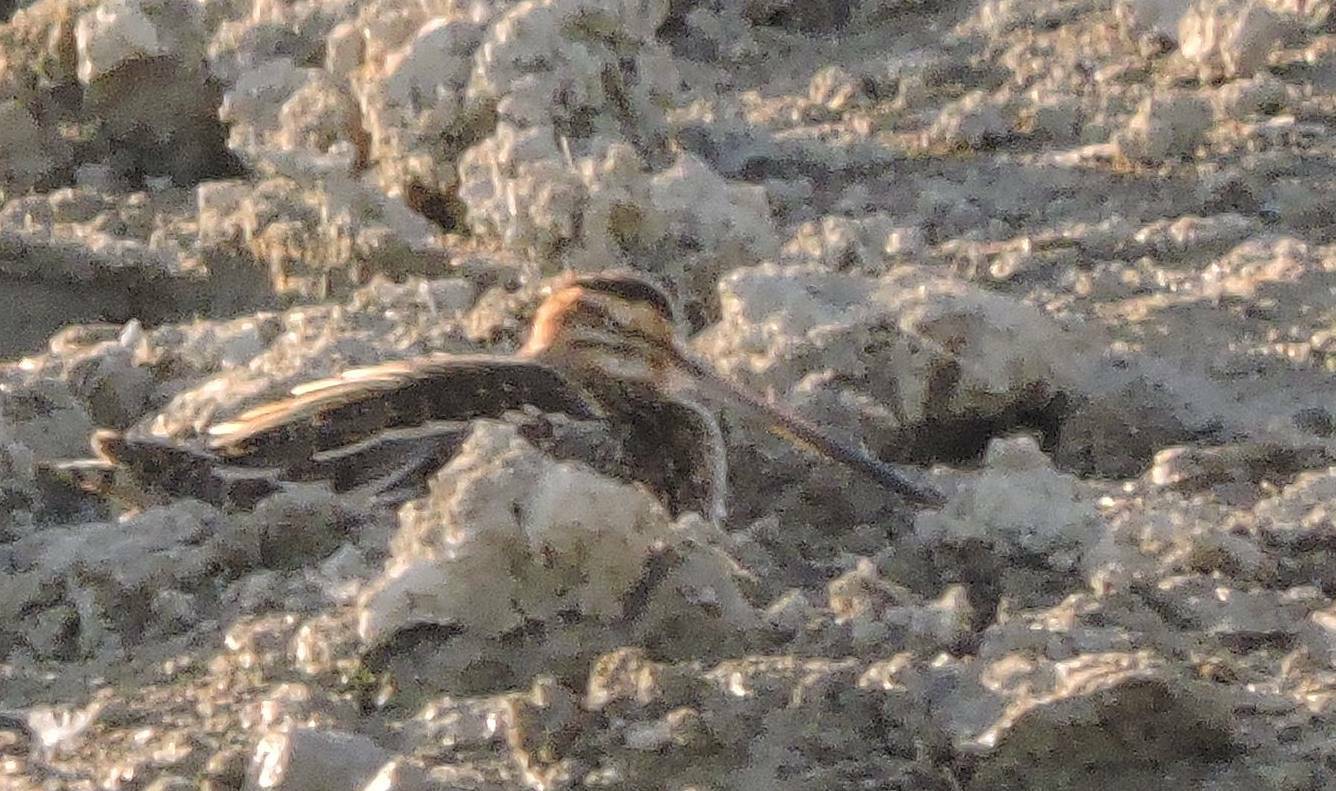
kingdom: Animalia
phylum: Chordata
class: Aves
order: Charadriiformes
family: Scolopacidae
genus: Gallinago
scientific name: Gallinago gallinago
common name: Common snipe
